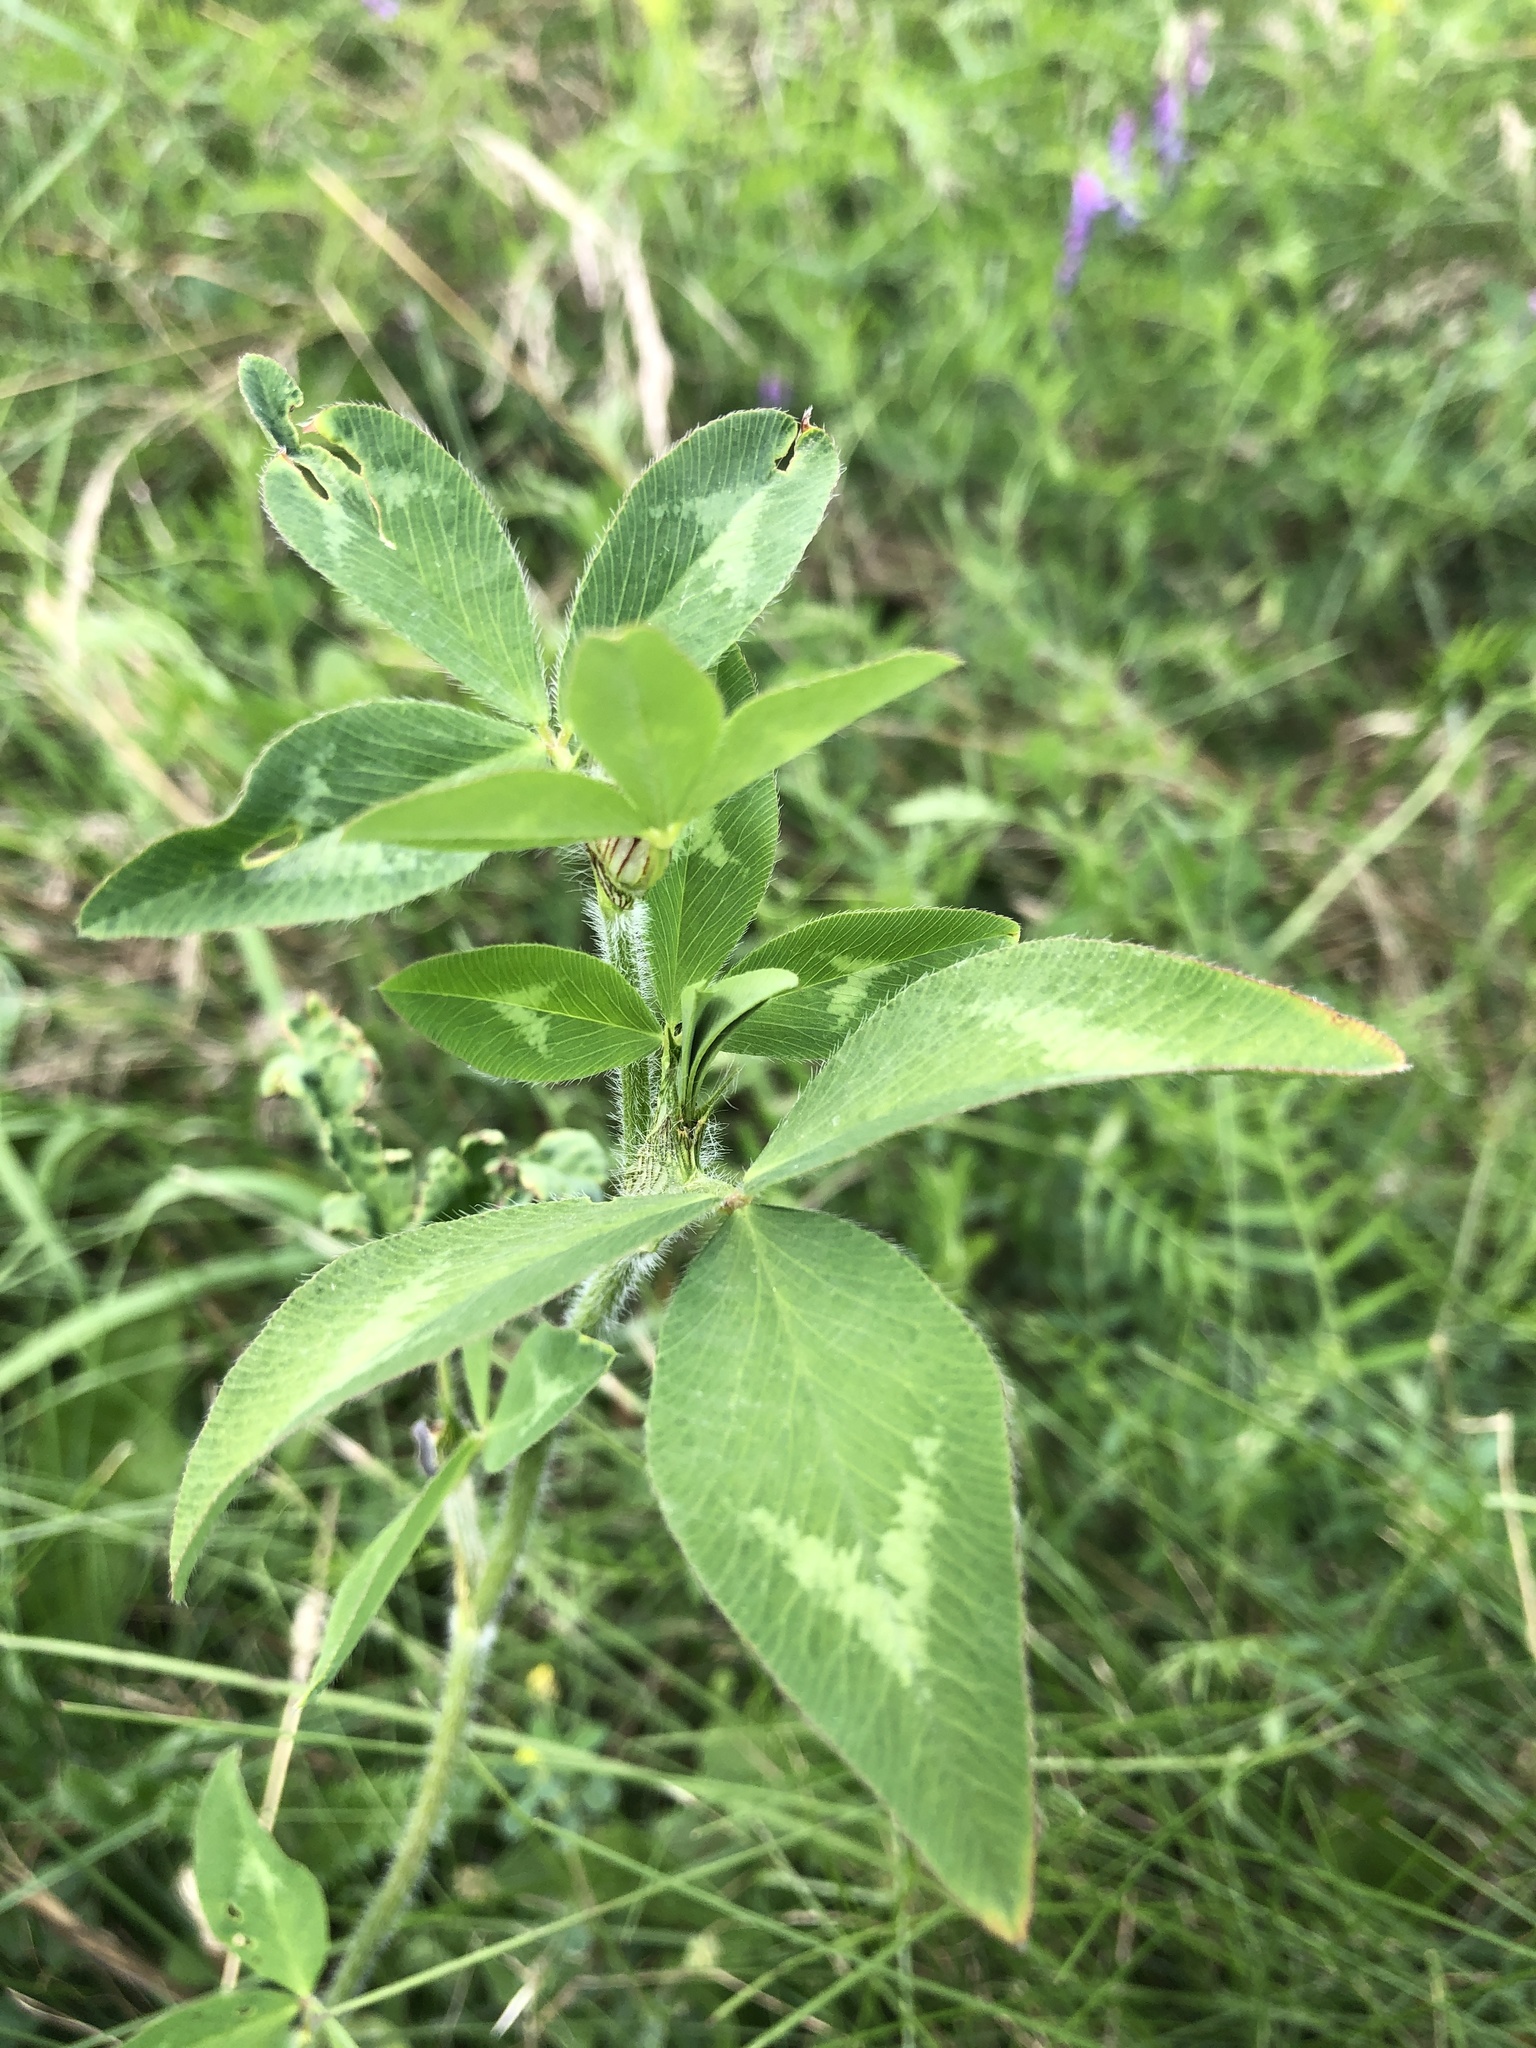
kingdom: Plantae
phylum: Tracheophyta
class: Magnoliopsida
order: Fabales
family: Fabaceae
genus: Trifolium
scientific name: Trifolium pratense
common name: Red clover
